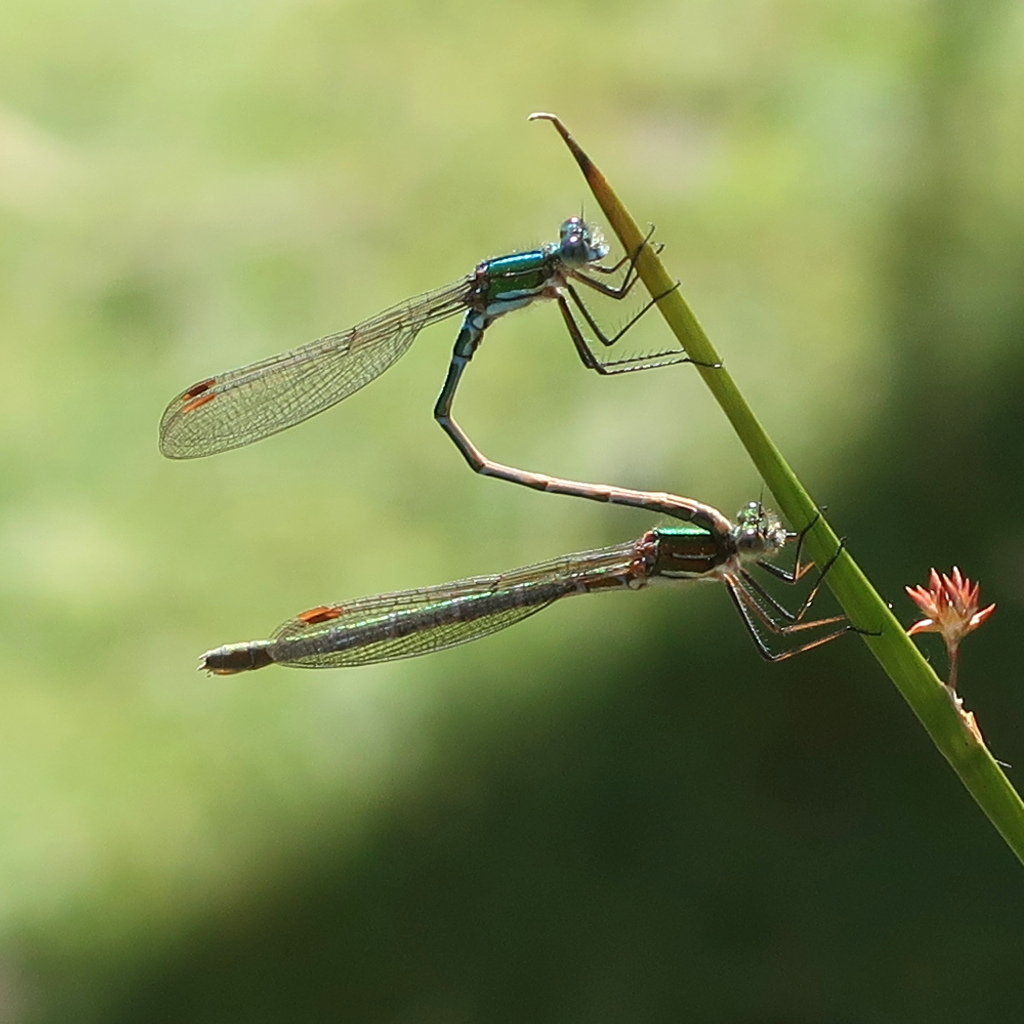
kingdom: Animalia
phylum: Arthropoda
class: Insecta
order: Odonata
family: Lestidae
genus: Austrolestes
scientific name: Austrolestes cingulatus
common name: Metallic ringtail
